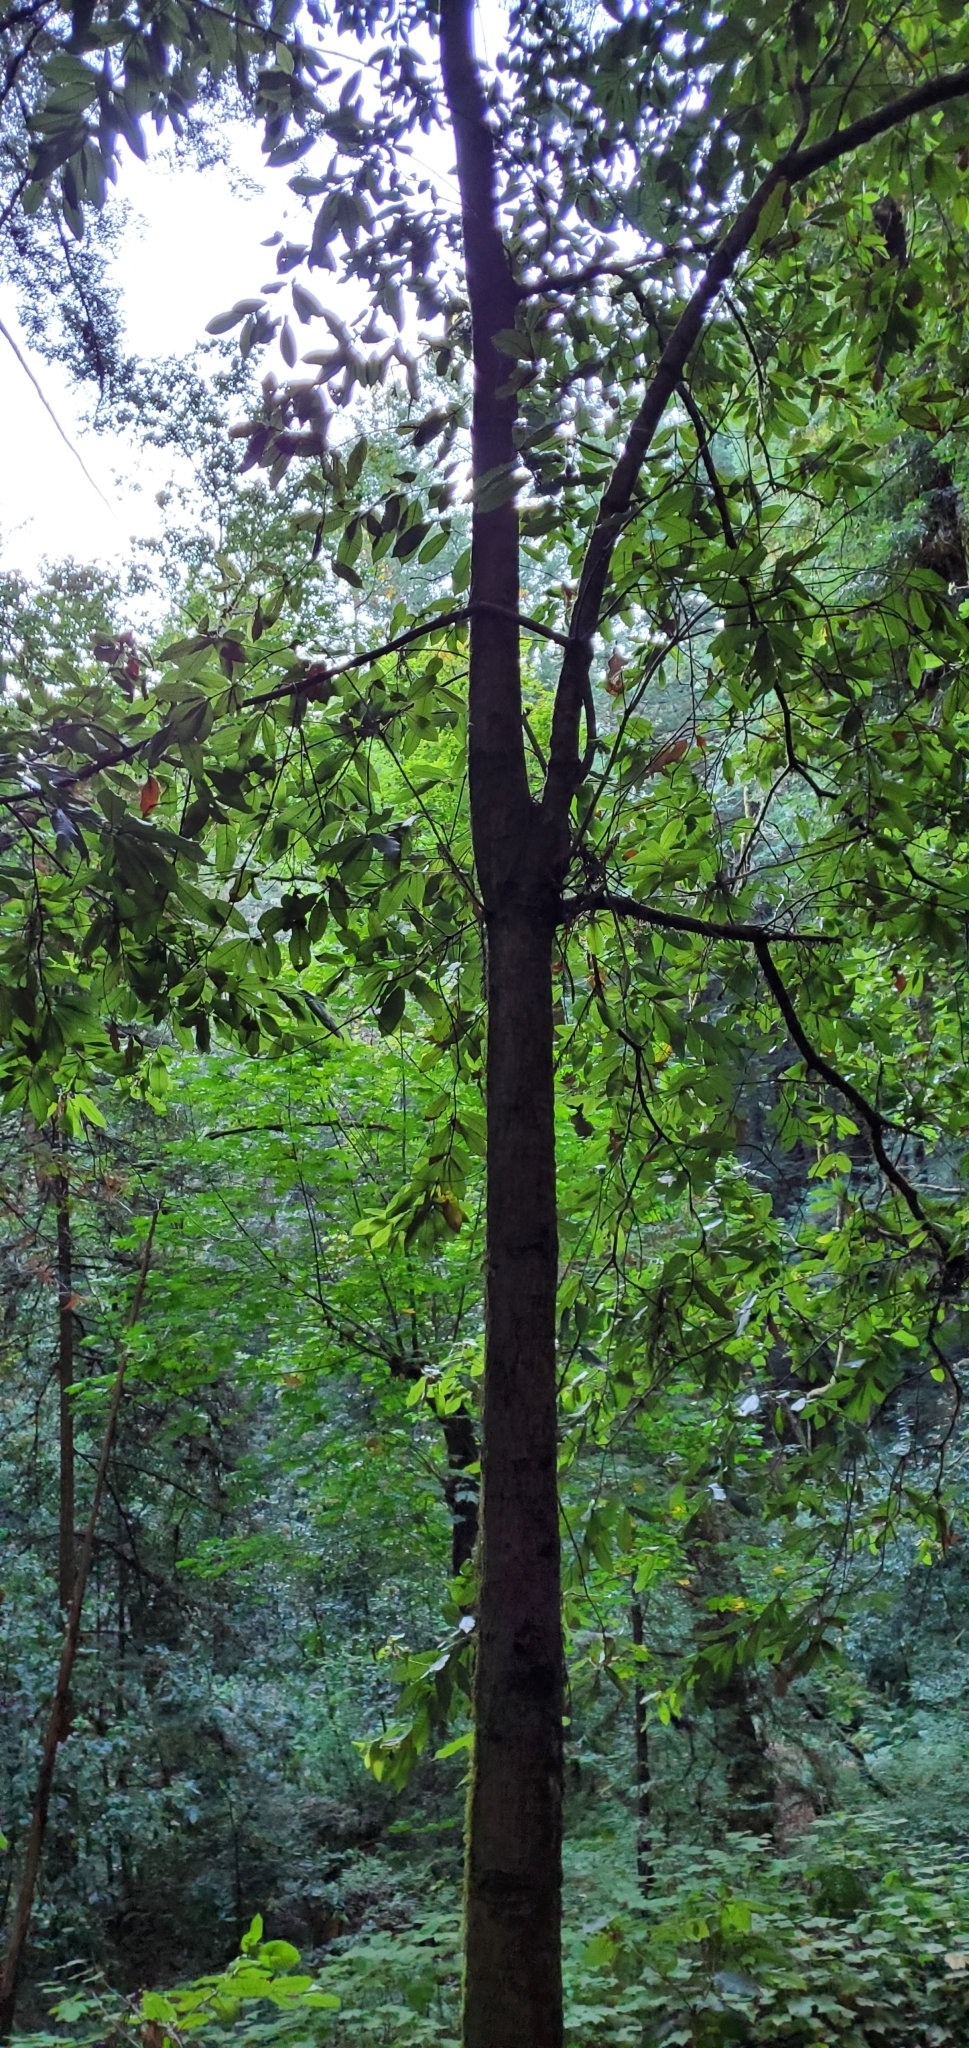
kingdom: Plantae
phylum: Tracheophyta
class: Magnoliopsida
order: Fagales
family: Fagaceae
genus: Notholithocarpus
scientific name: Notholithocarpus densiflorus
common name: Tan bark oak
